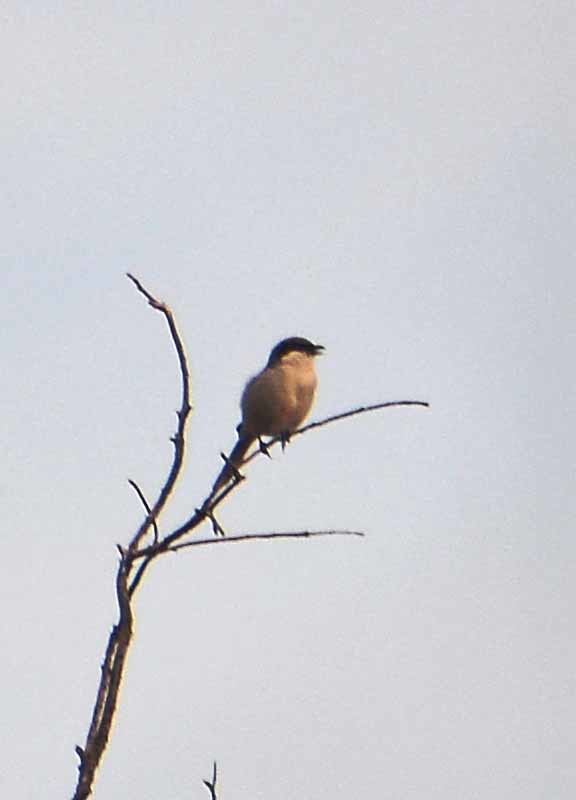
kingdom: Animalia
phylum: Chordata
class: Aves
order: Passeriformes
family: Laniidae
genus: Lanius
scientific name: Lanius ludovicianus
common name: Loggerhead shrike
